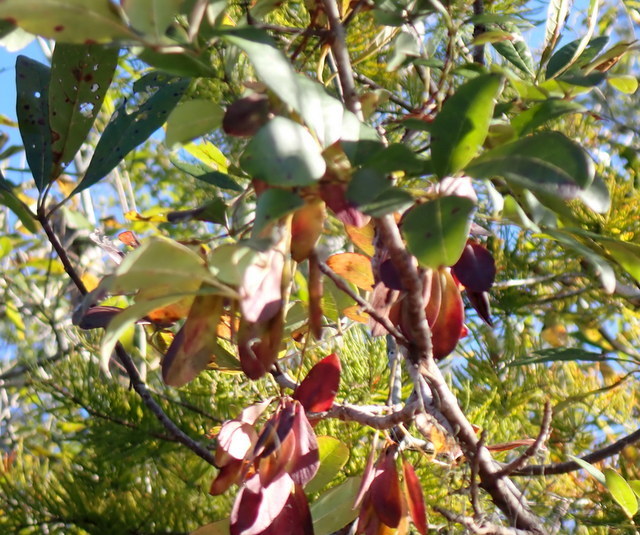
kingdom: Plantae
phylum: Tracheophyta
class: Magnoliopsida
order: Lamiales
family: Oleaceae
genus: Fraxinus
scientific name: Fraxinus caroliniana
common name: Carolina ash
